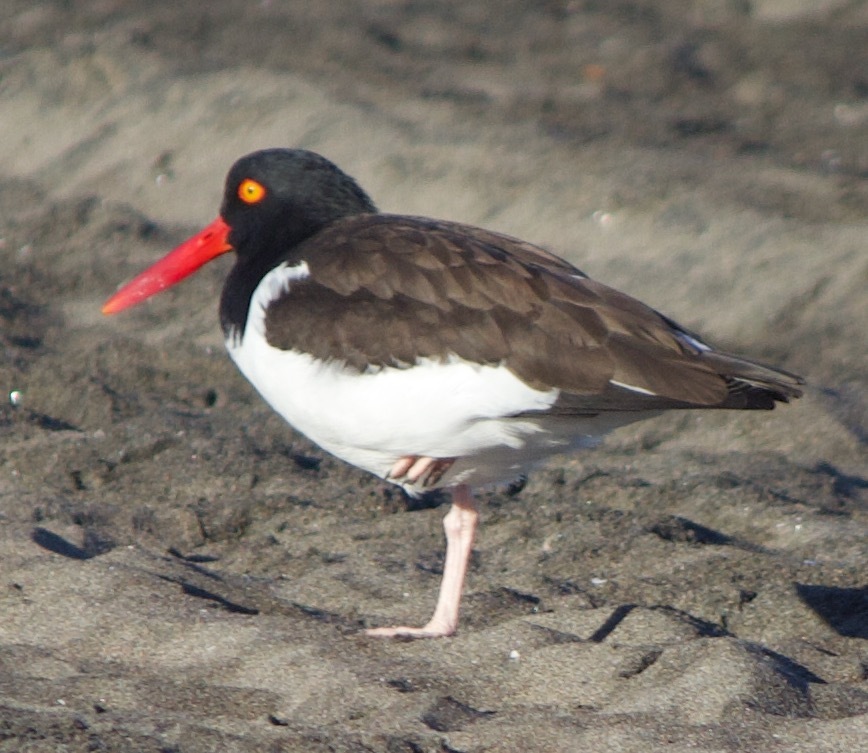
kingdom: Animalia
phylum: Chordata
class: Aves
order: Charadriiformes
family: Haematopodidae
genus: Haematopus
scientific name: Haematopus palliatus
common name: American oystercatcher
